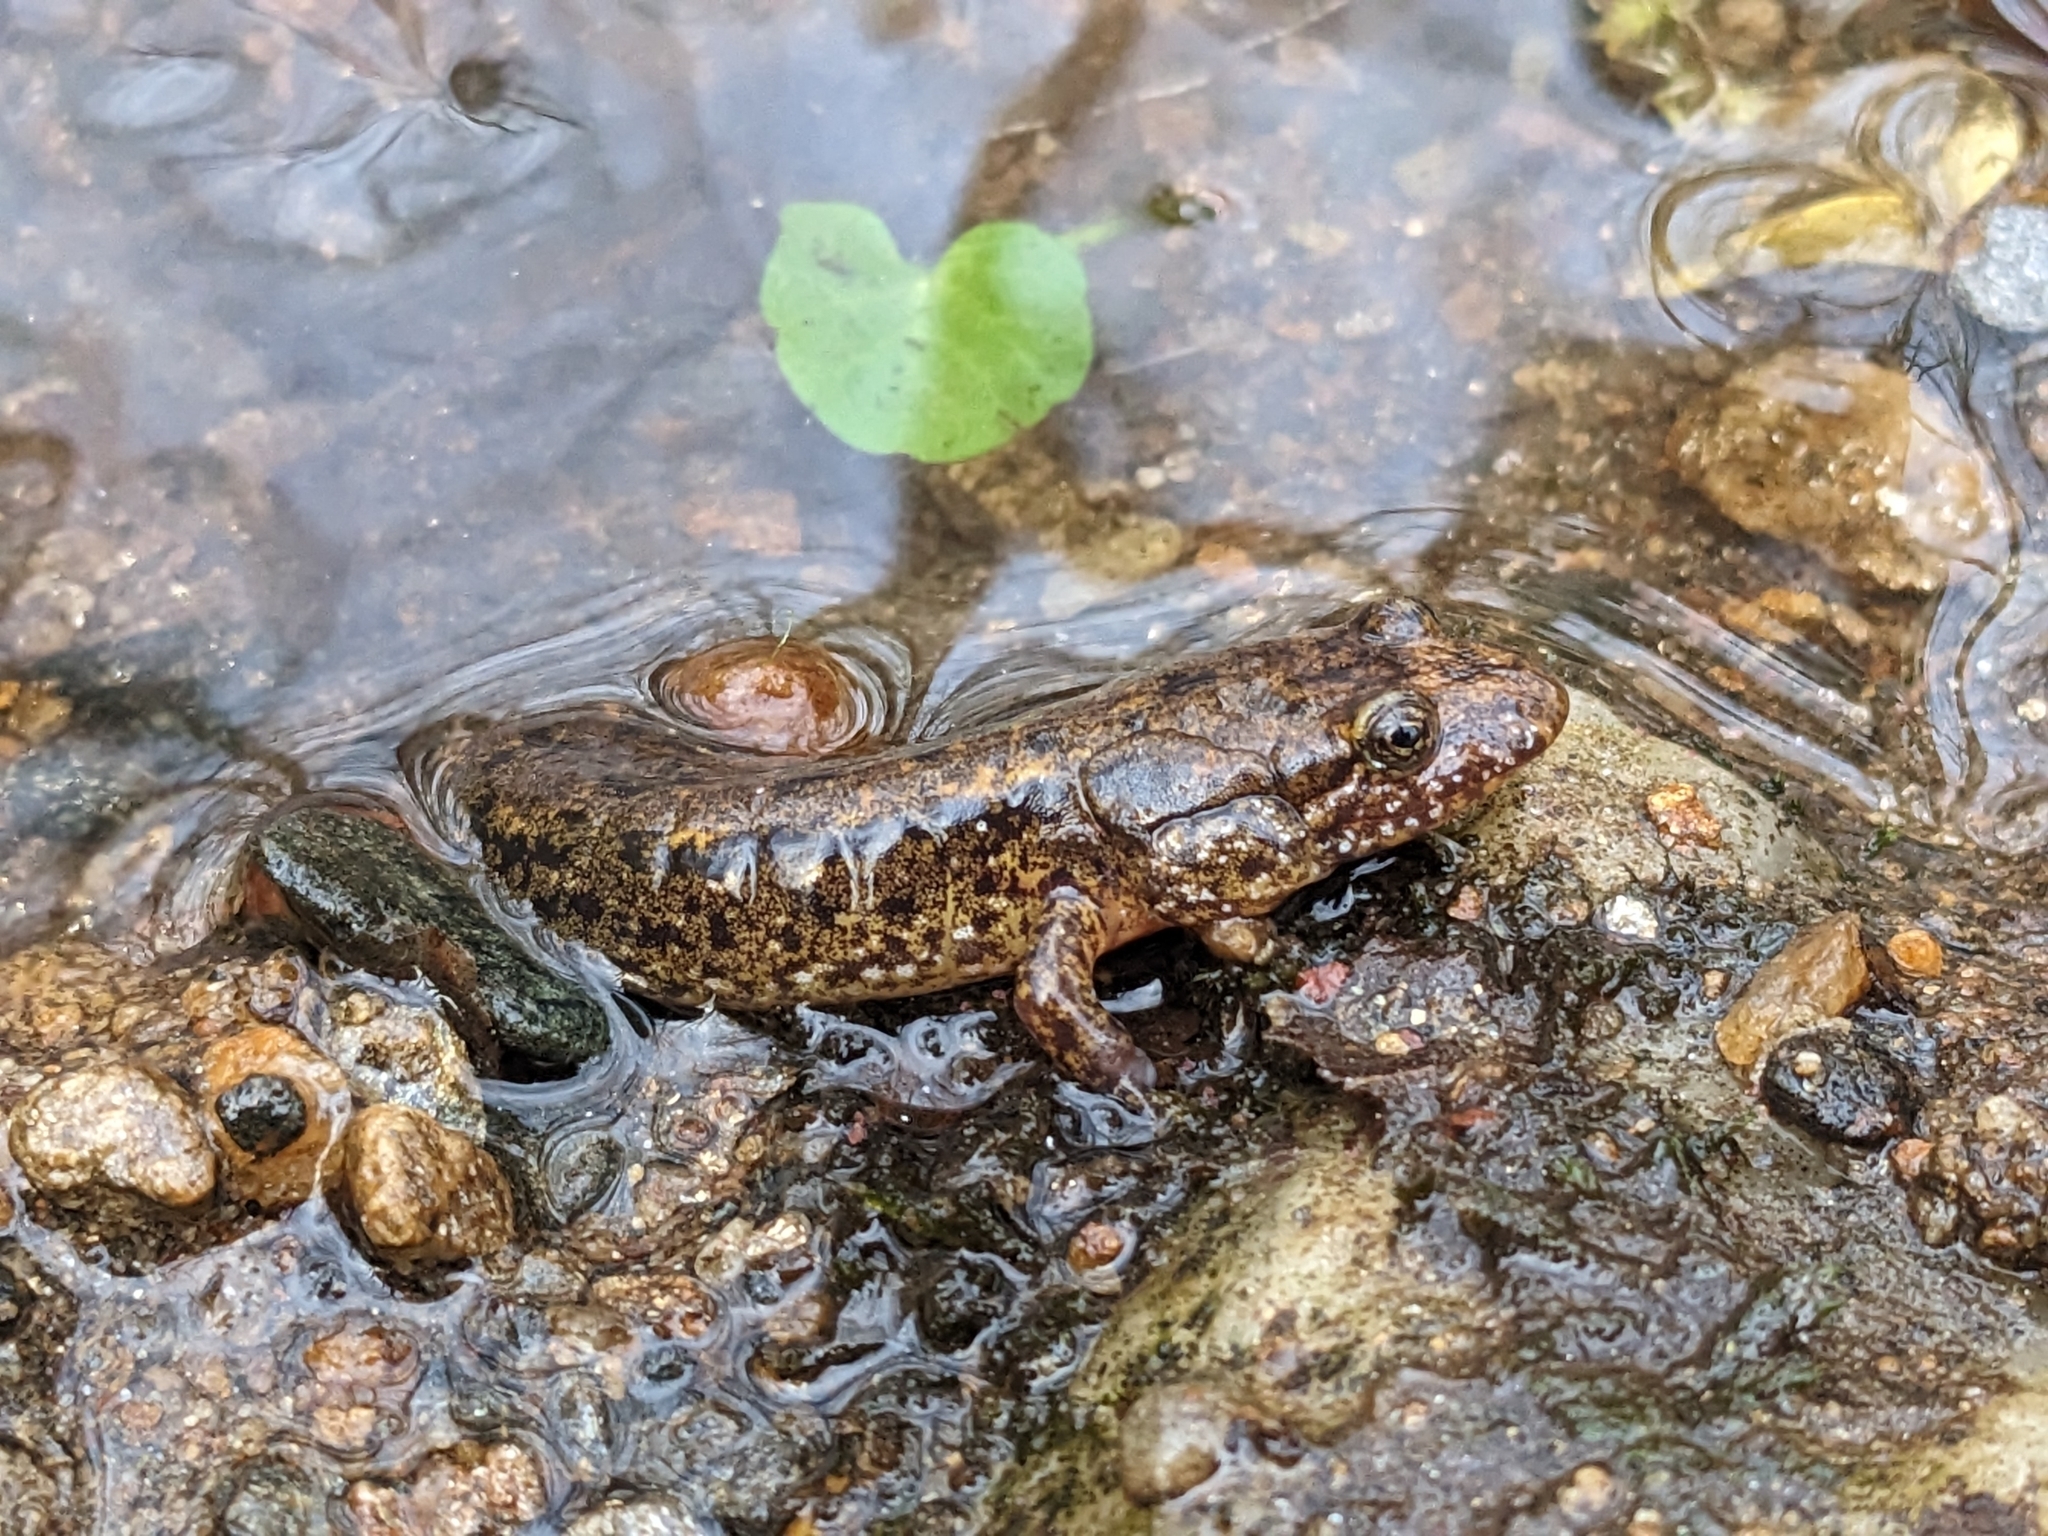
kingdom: Animalia
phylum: Chordata
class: Amphibia
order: Caudata
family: Plethodontidae
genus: Desmognathus
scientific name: Desmognathus planiceps
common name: Flat-headed salamander
